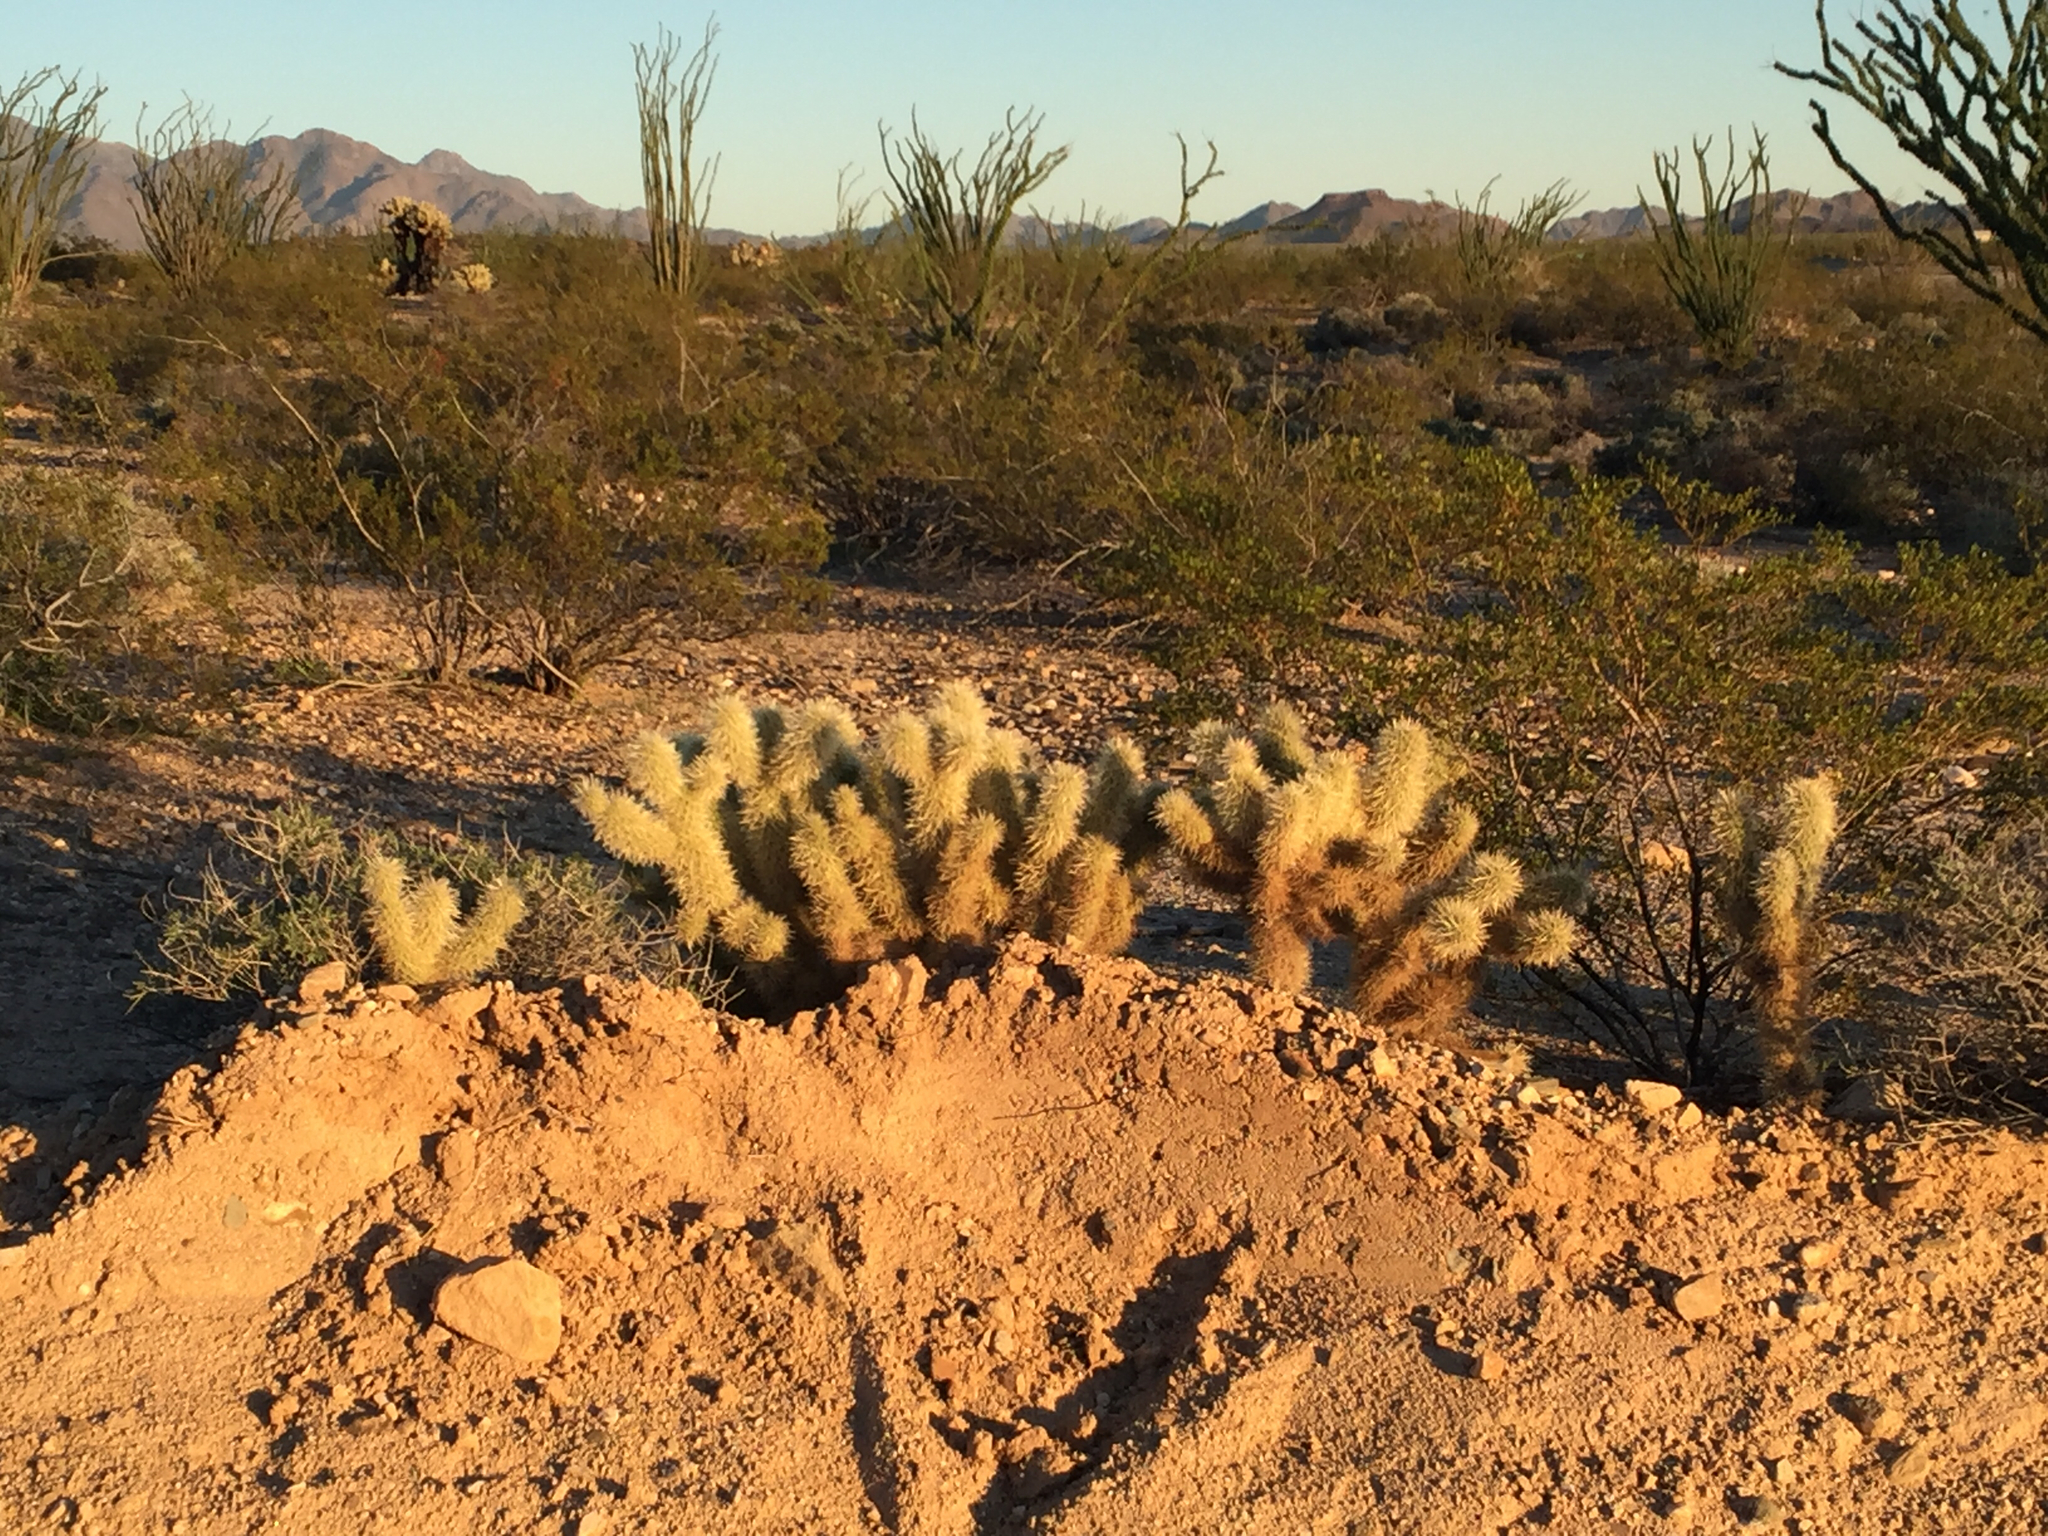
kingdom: Plantae
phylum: Tracheophyta
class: Magnoliopsida
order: Caryophyllales
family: Cactaceae
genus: Cylindropuntia
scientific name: Cylindropuntia fosbergii
